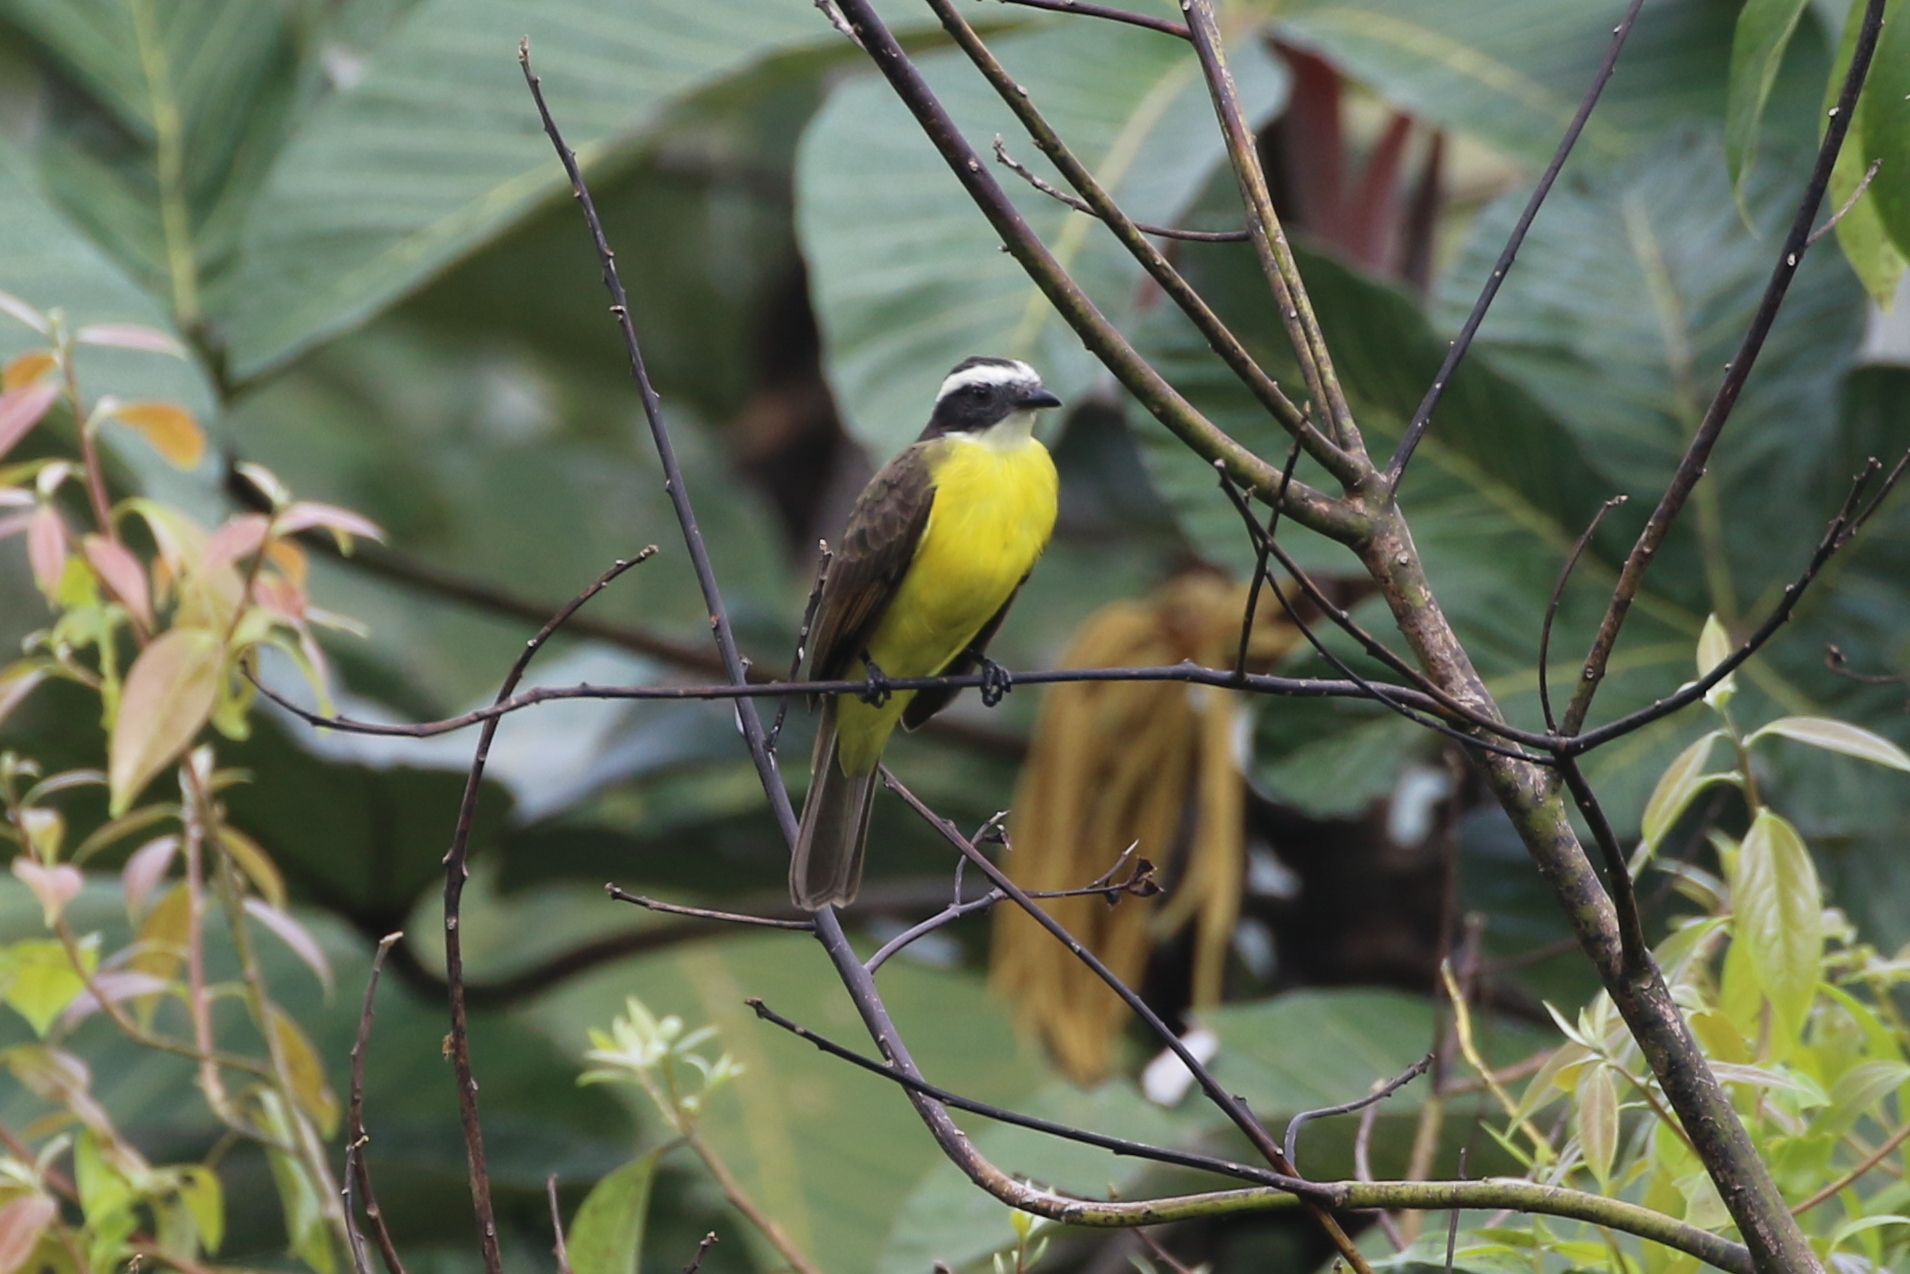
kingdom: Animalia
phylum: Chordata
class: Aves
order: Passeriformes
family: Tyrannidae
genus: Myiozetetes
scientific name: Myiozetetes cayanensis
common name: Rusty-margined flycatcher
